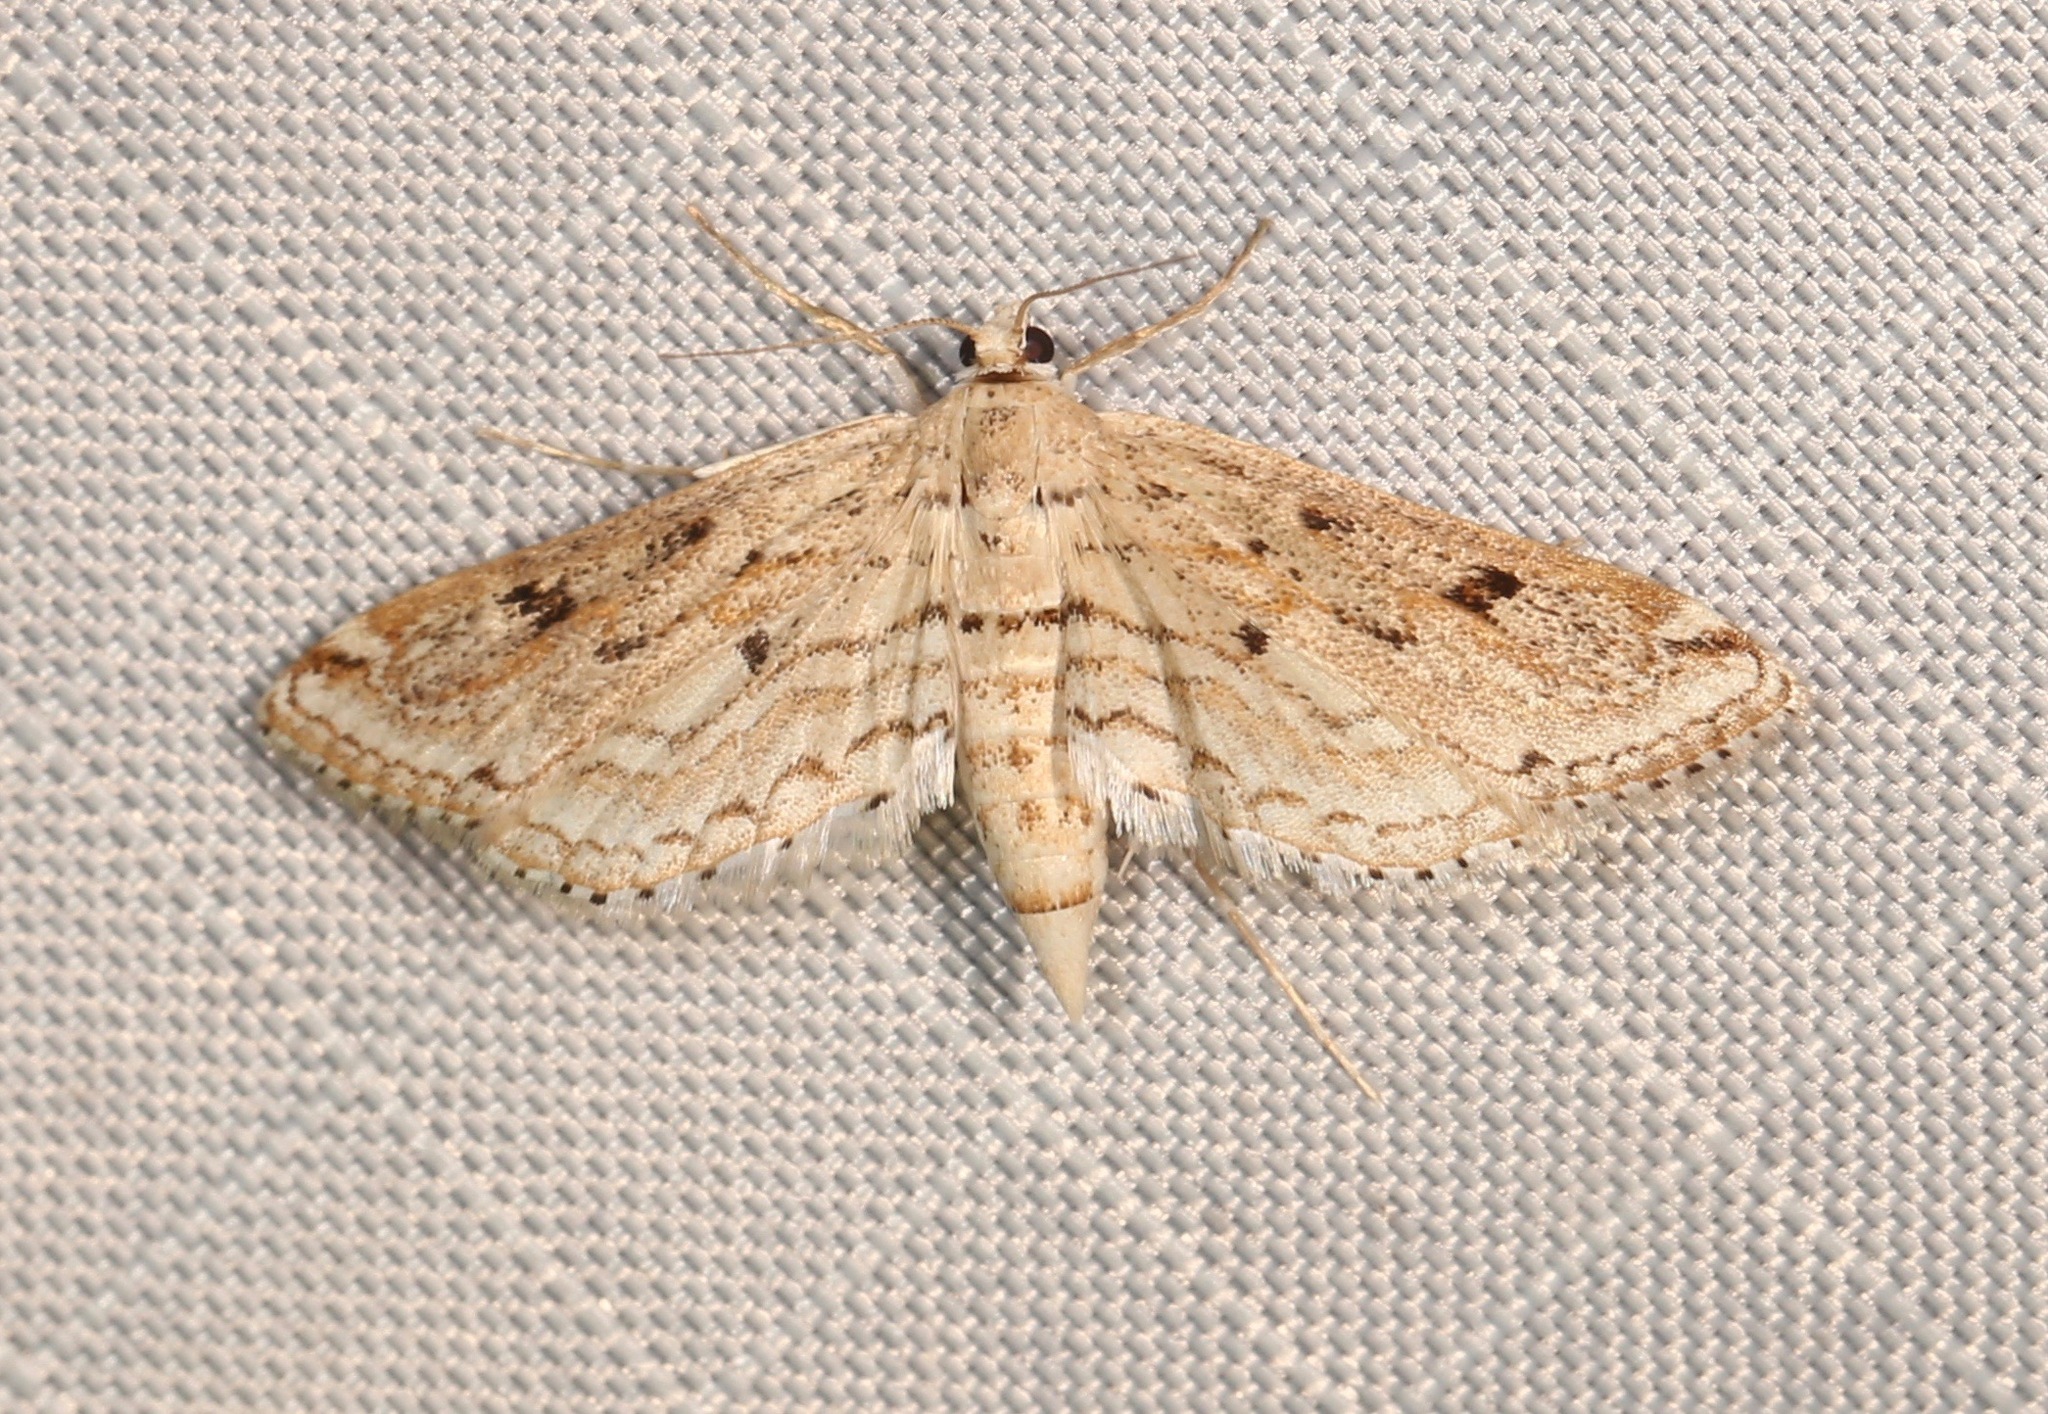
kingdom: Animalia
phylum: Arthropoda
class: Insecta
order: Lepidoptera
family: Crambidae
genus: Parapoynx
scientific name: Parapoynx allionealis
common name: Bladderwort casemaker
